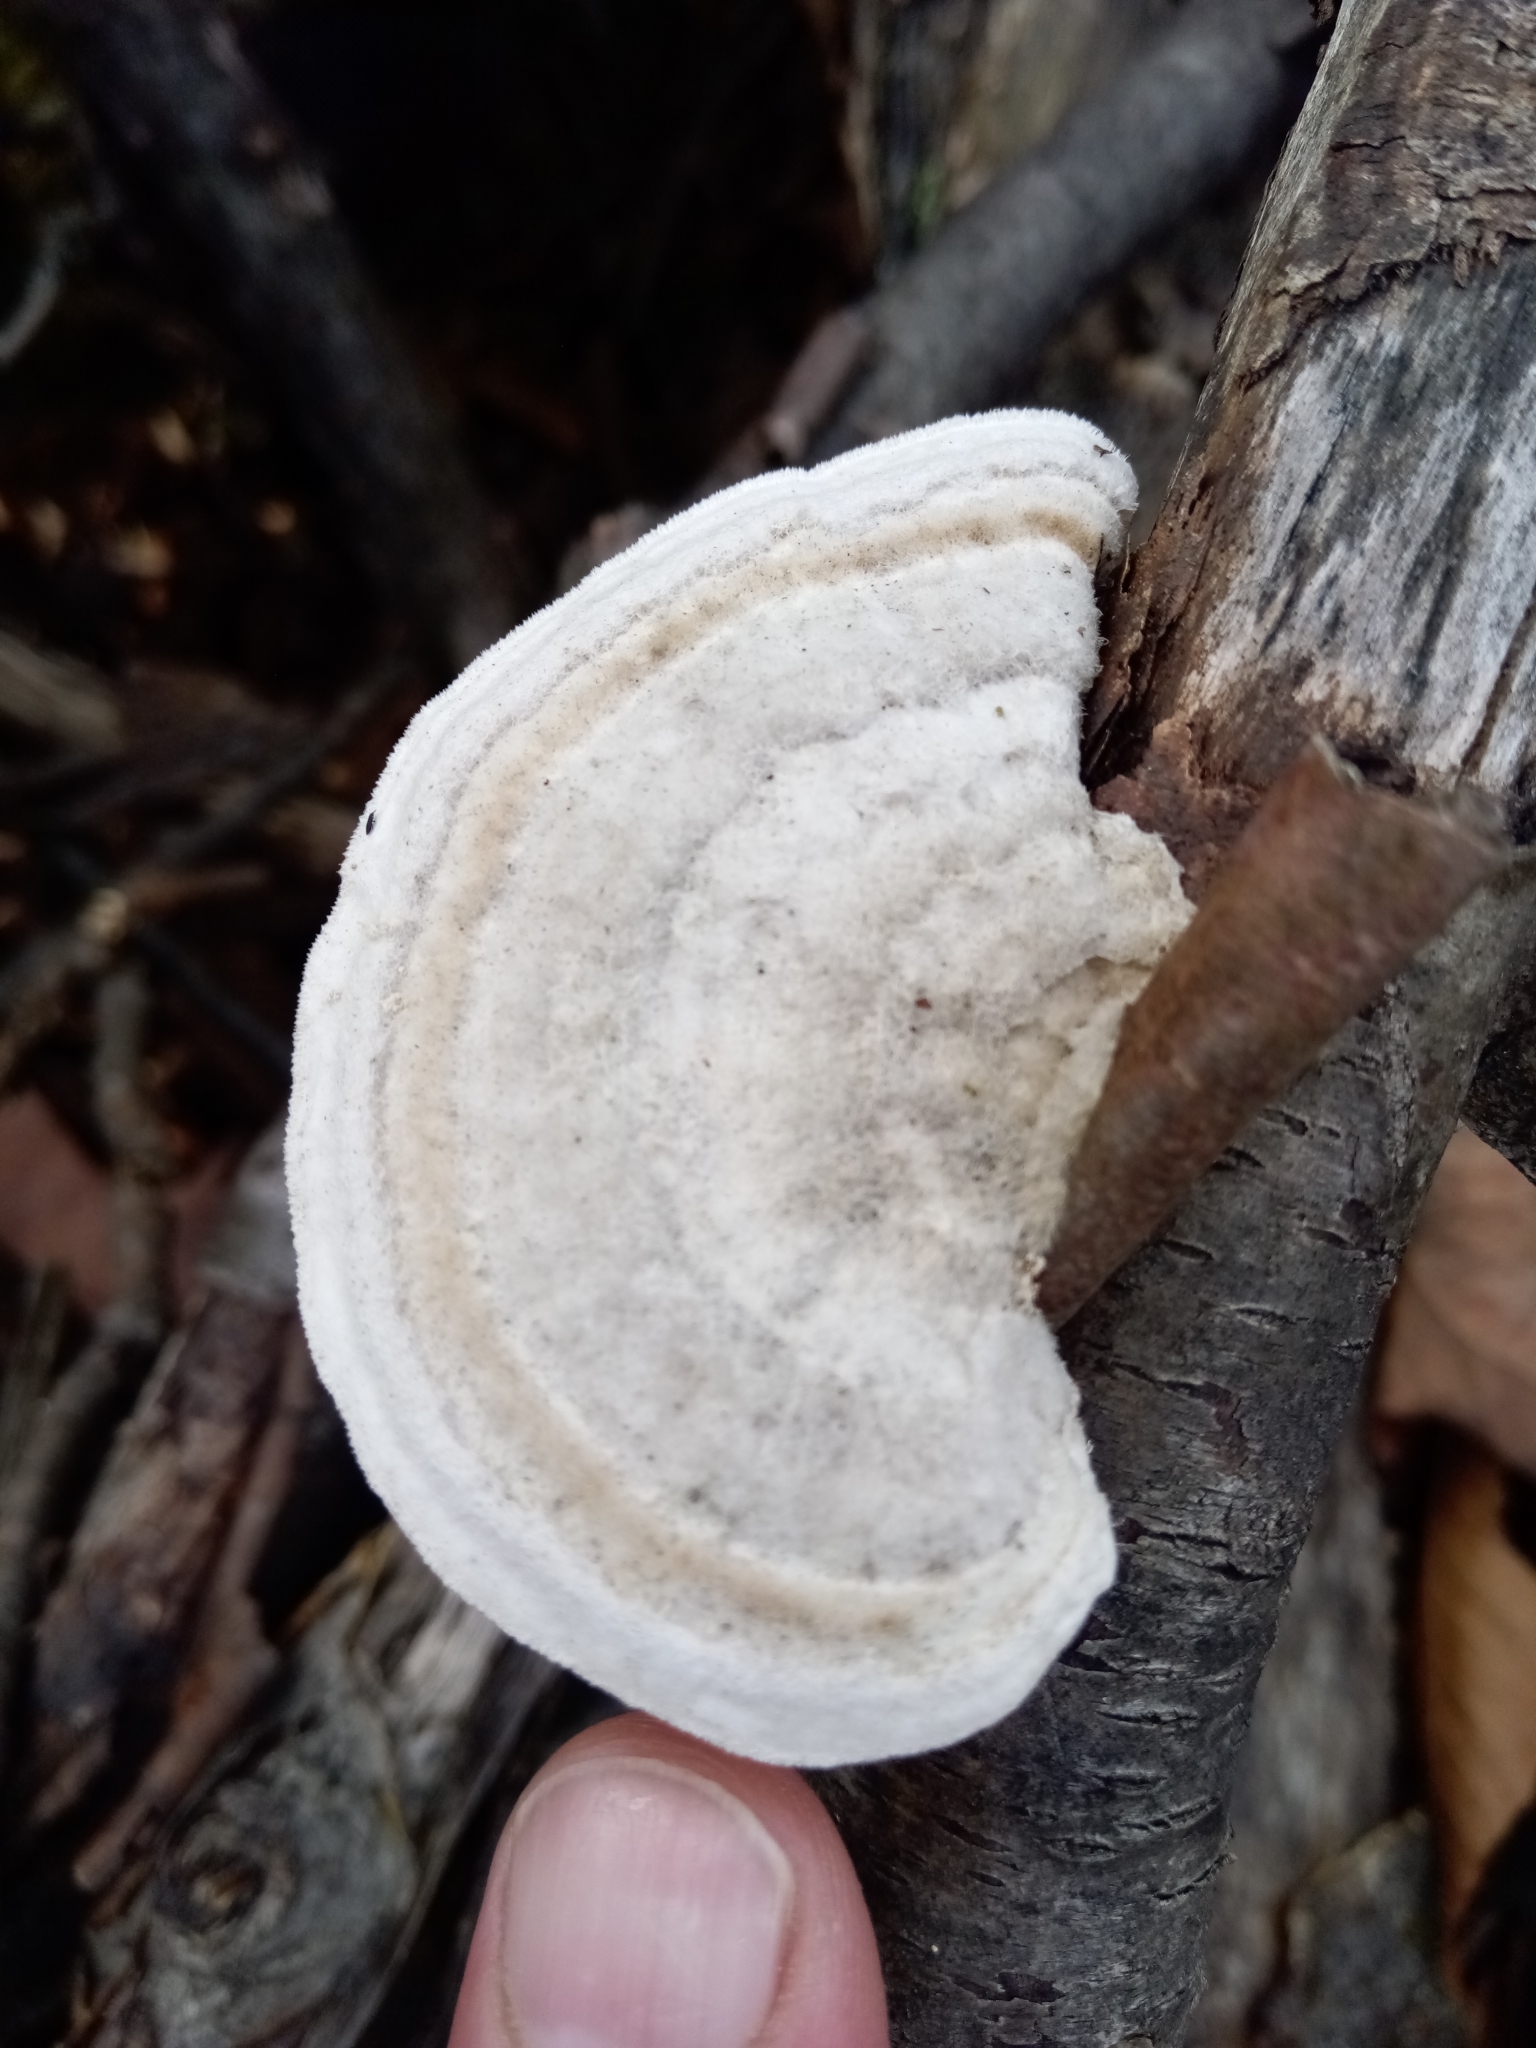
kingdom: Fungi
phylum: Basidiomycota
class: Agaricomycetes
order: Polyporales
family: Polyporaceae
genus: Trametes
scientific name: Trametes hirsuta
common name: Hairy bracket
